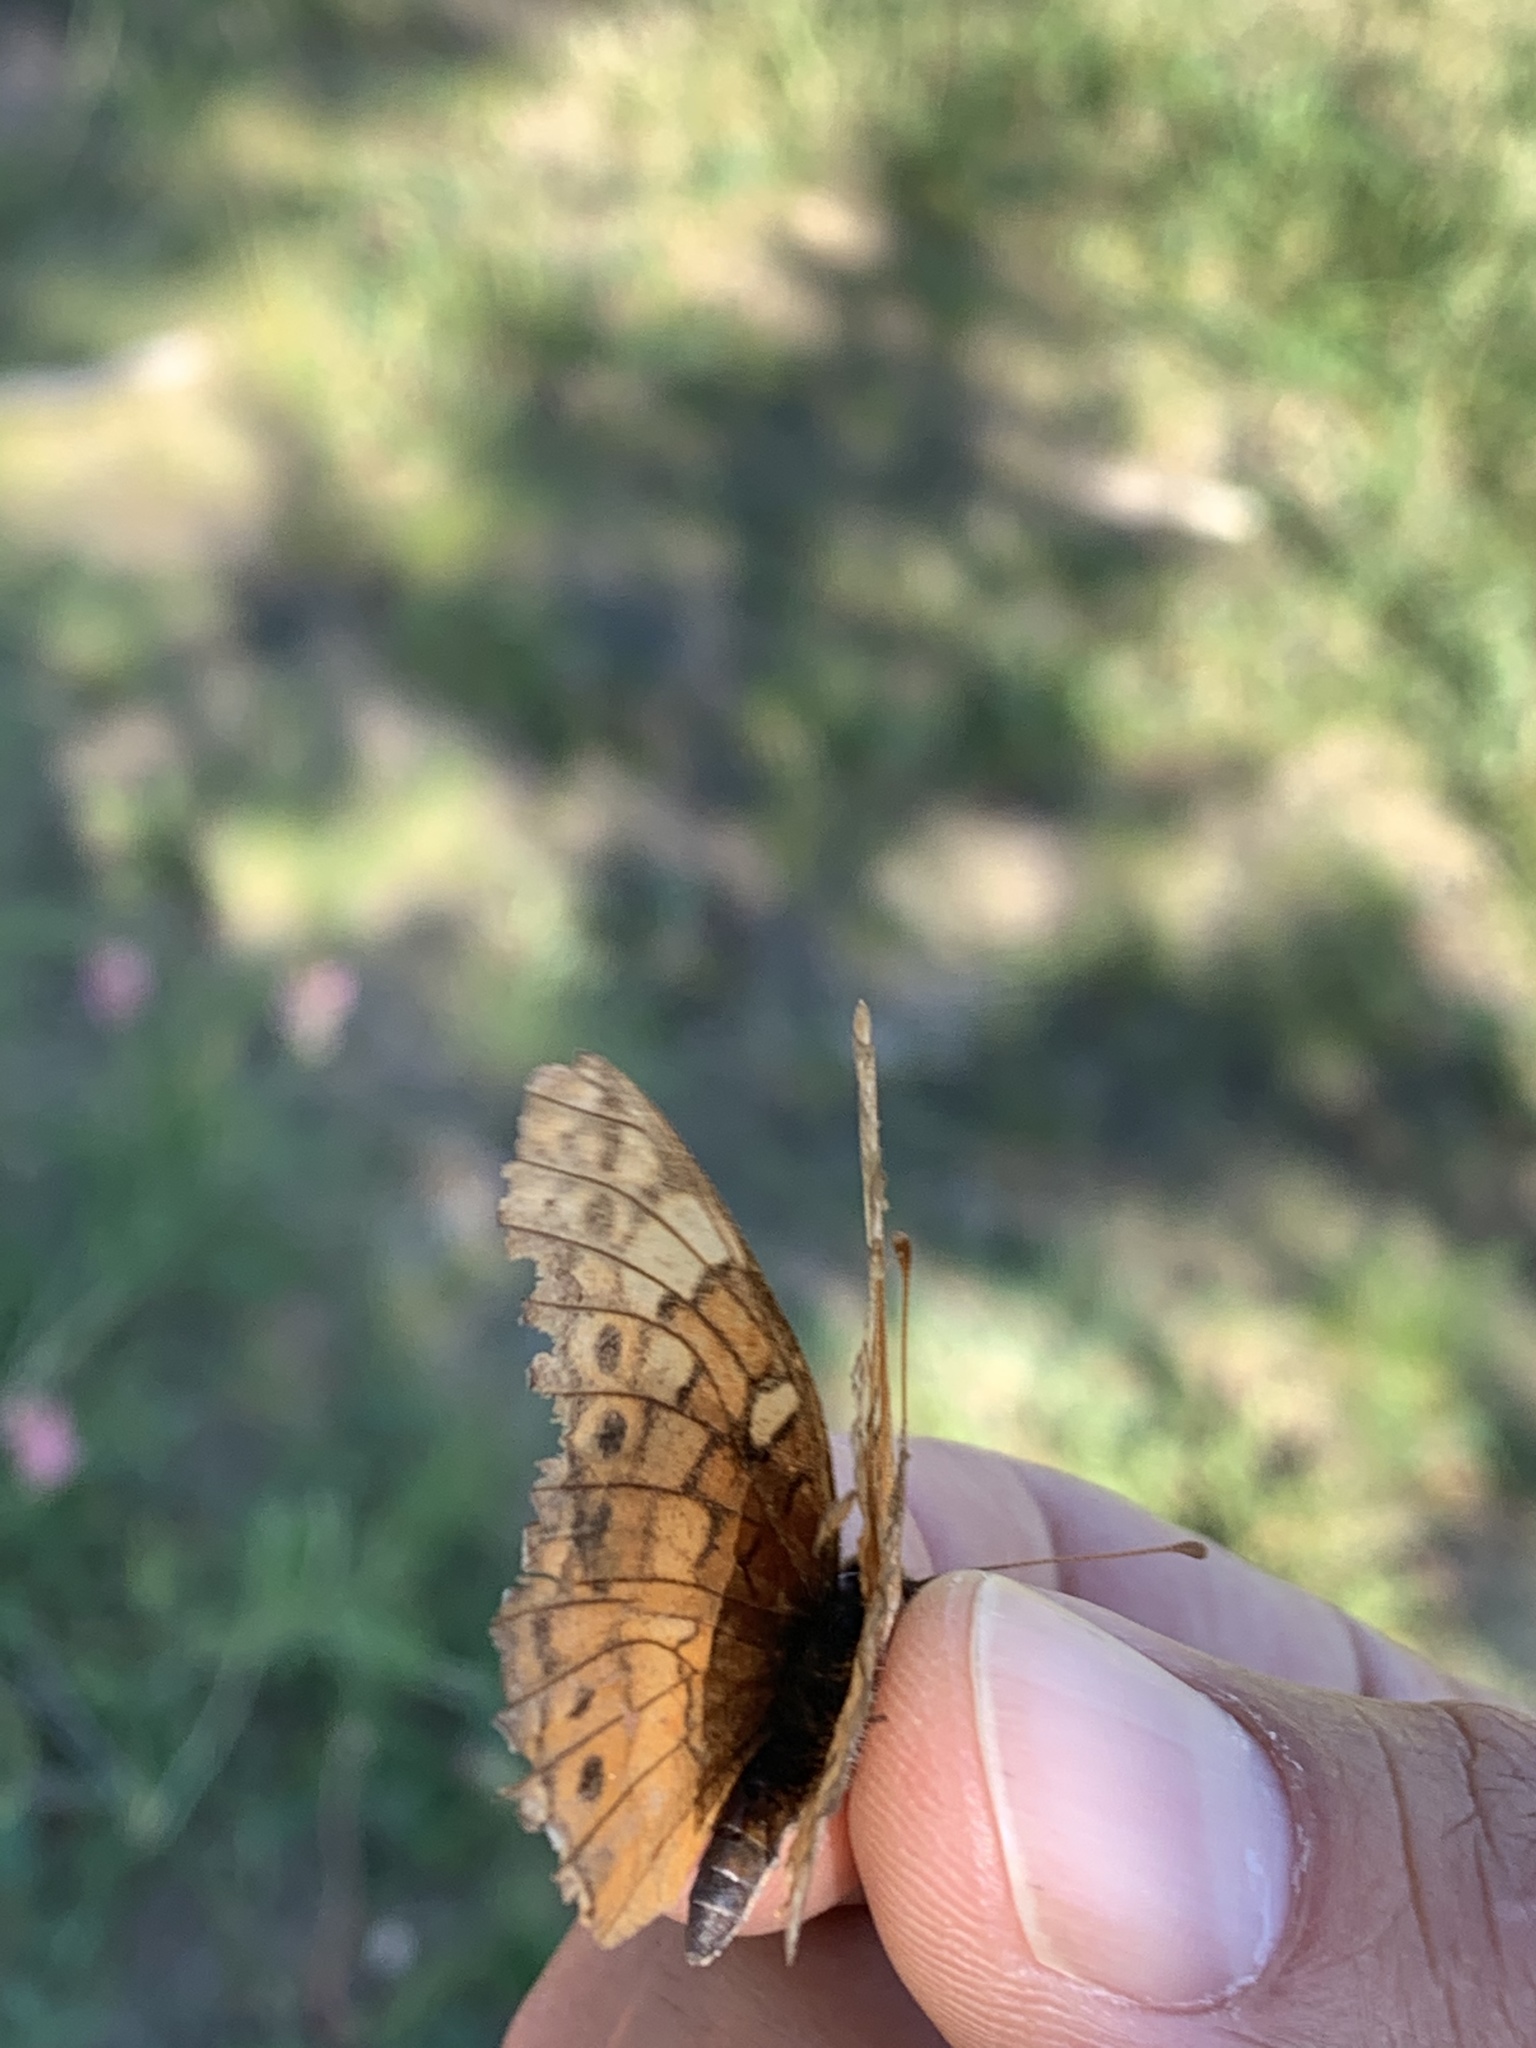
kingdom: Animalia
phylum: Arthropoda
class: Insecta
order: Lepidoptera
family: Nymphalidae
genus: Euptoieta
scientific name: Euptoieta claudia
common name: Variegated fritillary
